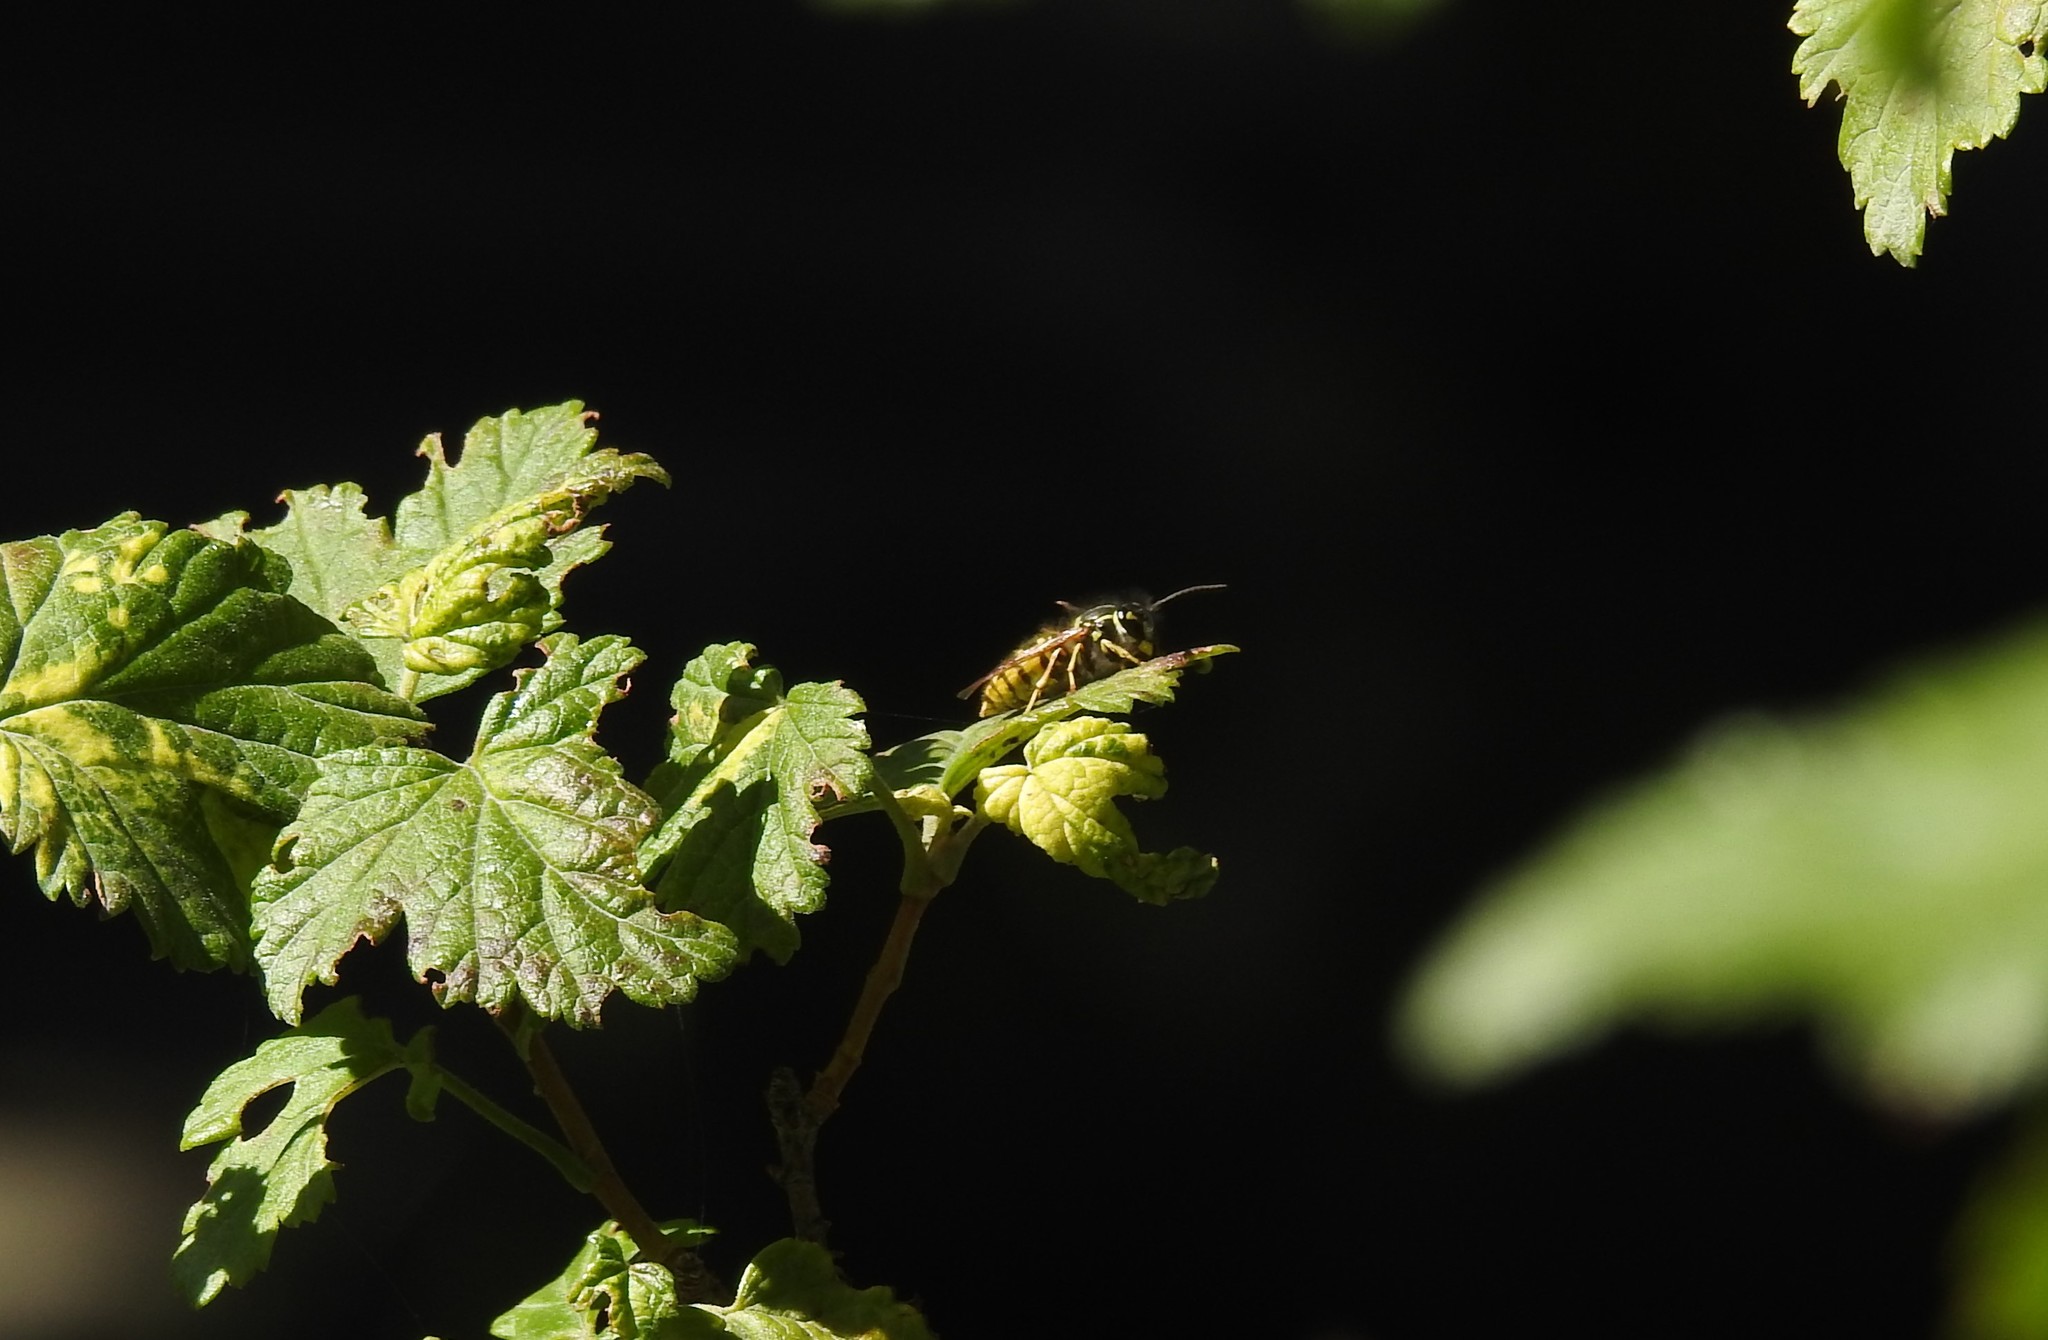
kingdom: Animalia
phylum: Arthropoda
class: Insecta
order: Hymenoptera
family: Vespidae
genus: Vespula
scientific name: Vespula vulgaris
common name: Common wasp
